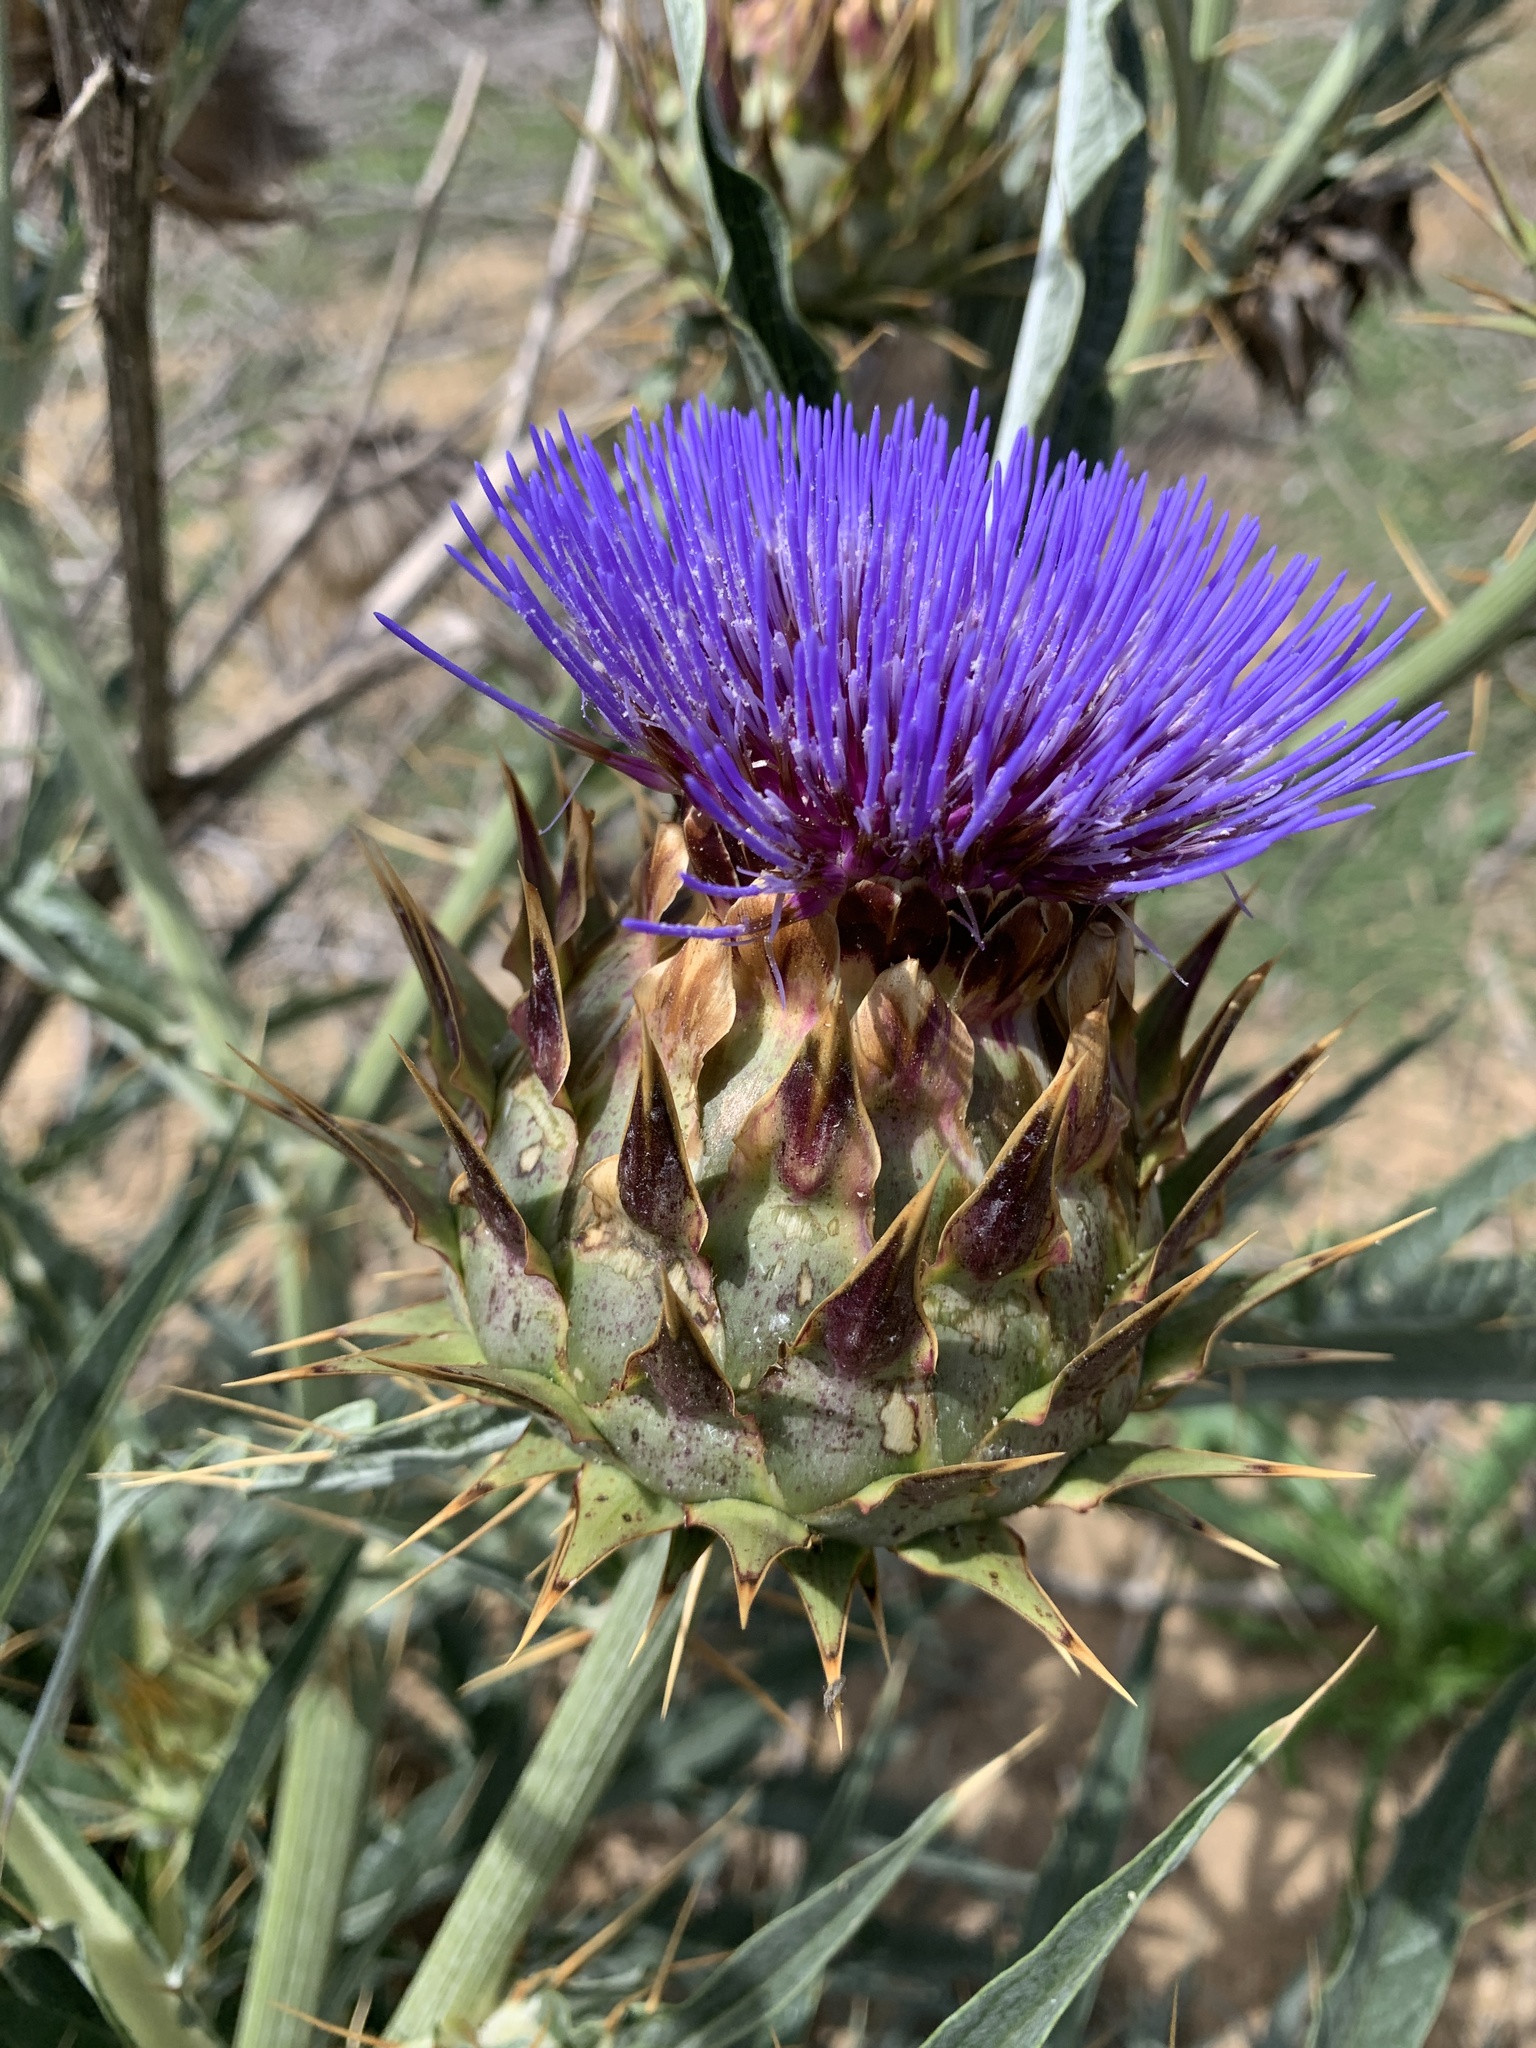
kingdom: Plantae
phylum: Tracheophyta
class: Magnoliopsida
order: Asterales
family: Asteraceae
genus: Cynara
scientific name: Cynara cardunculus
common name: Globe artichoke
